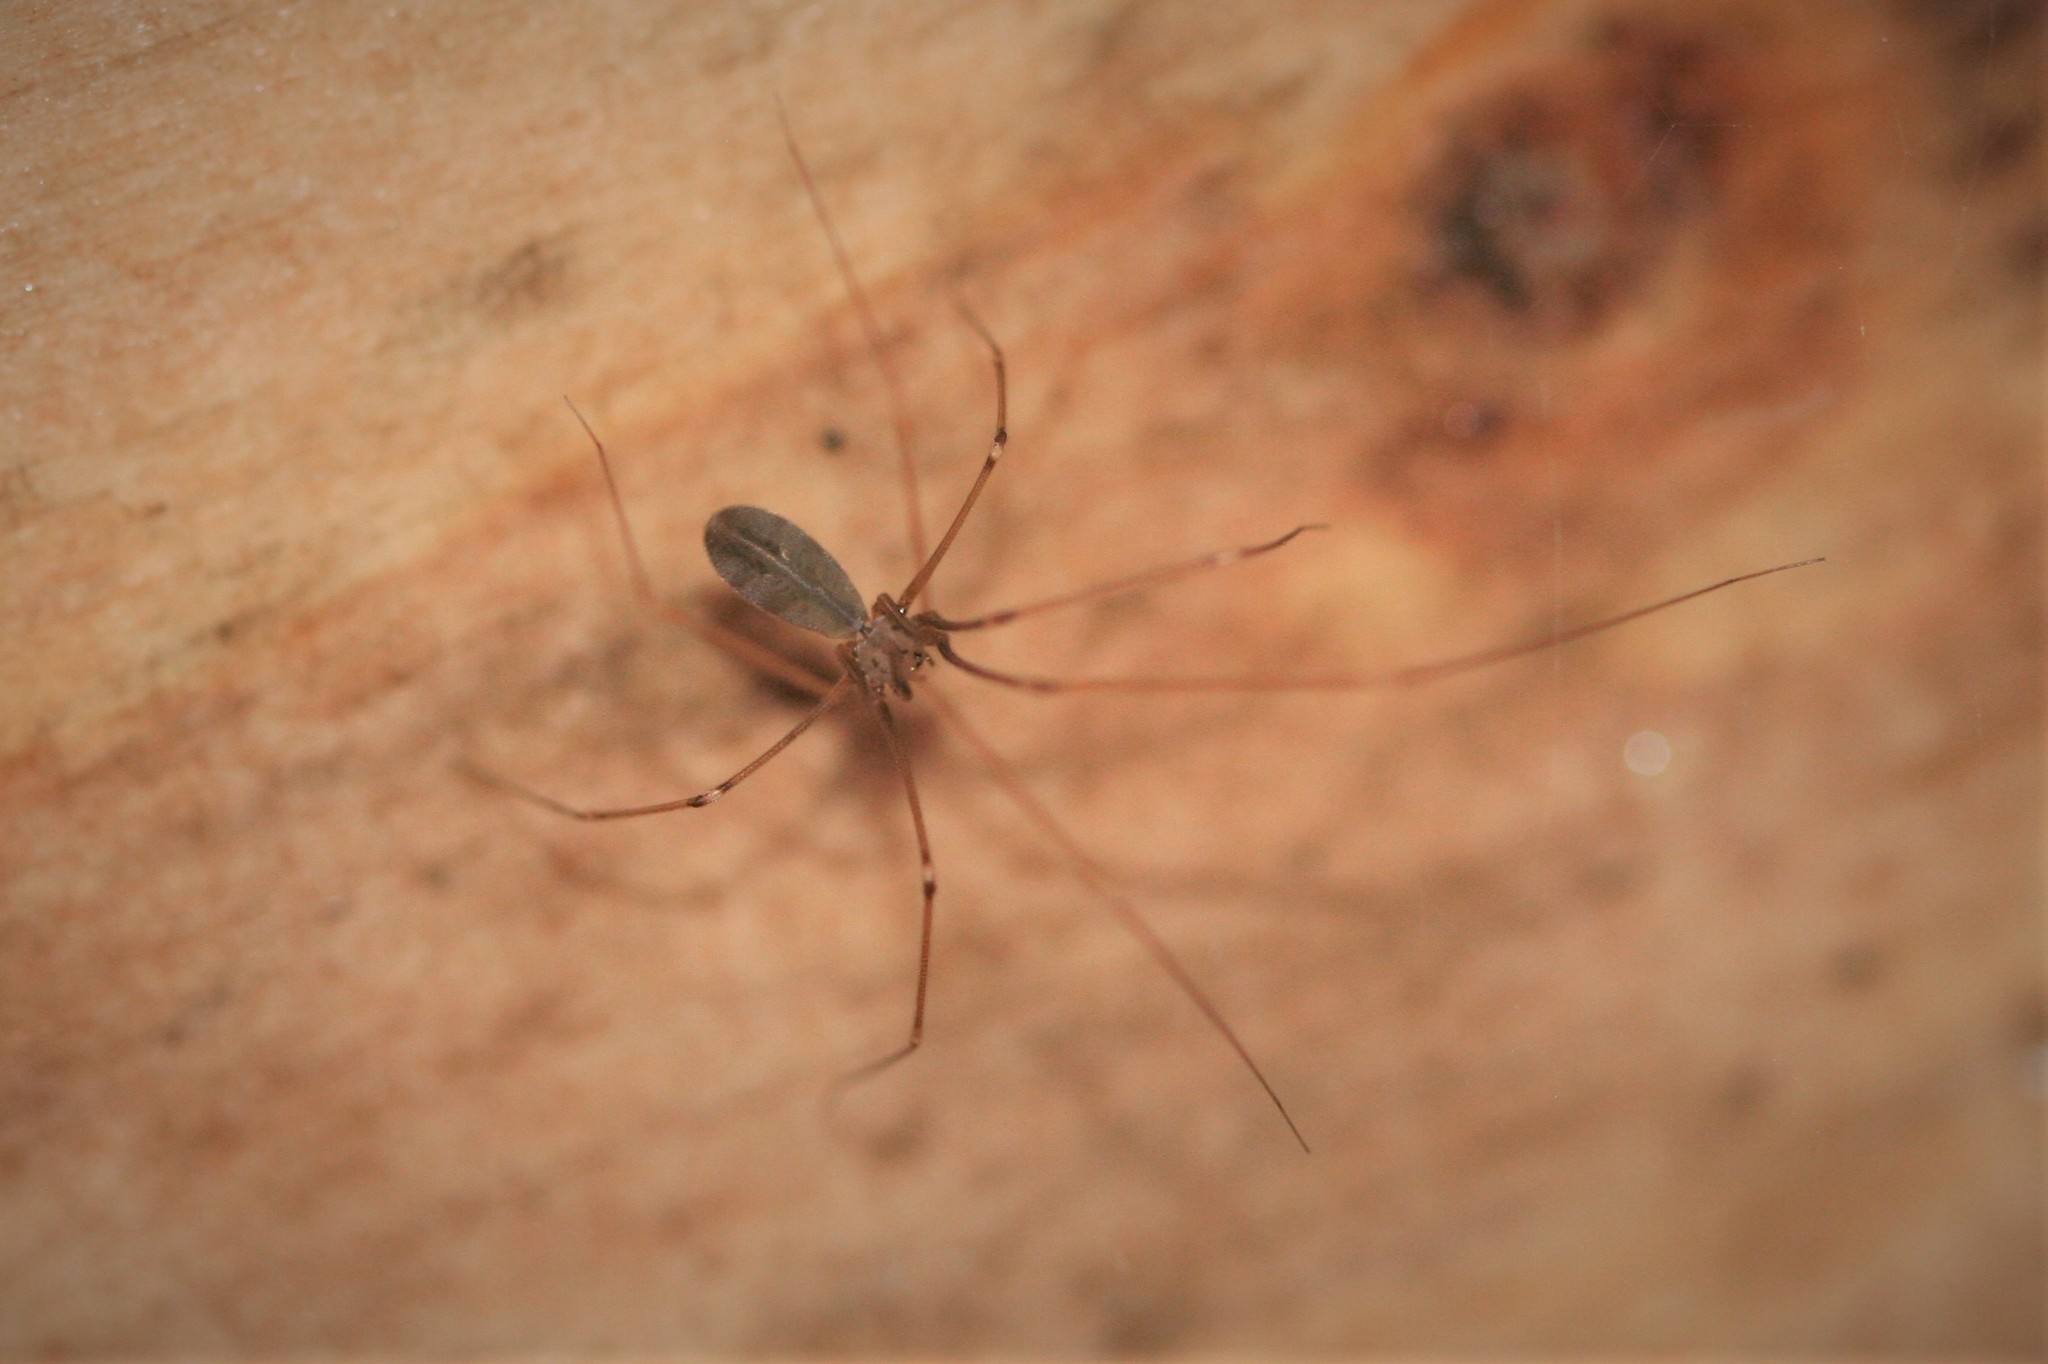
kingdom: Animalia
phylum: Arthropoda
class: Arachnida
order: Araneae
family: Pholcidae
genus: Pholcus
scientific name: Pholcus phalangioides
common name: Longbodied cellar spider
